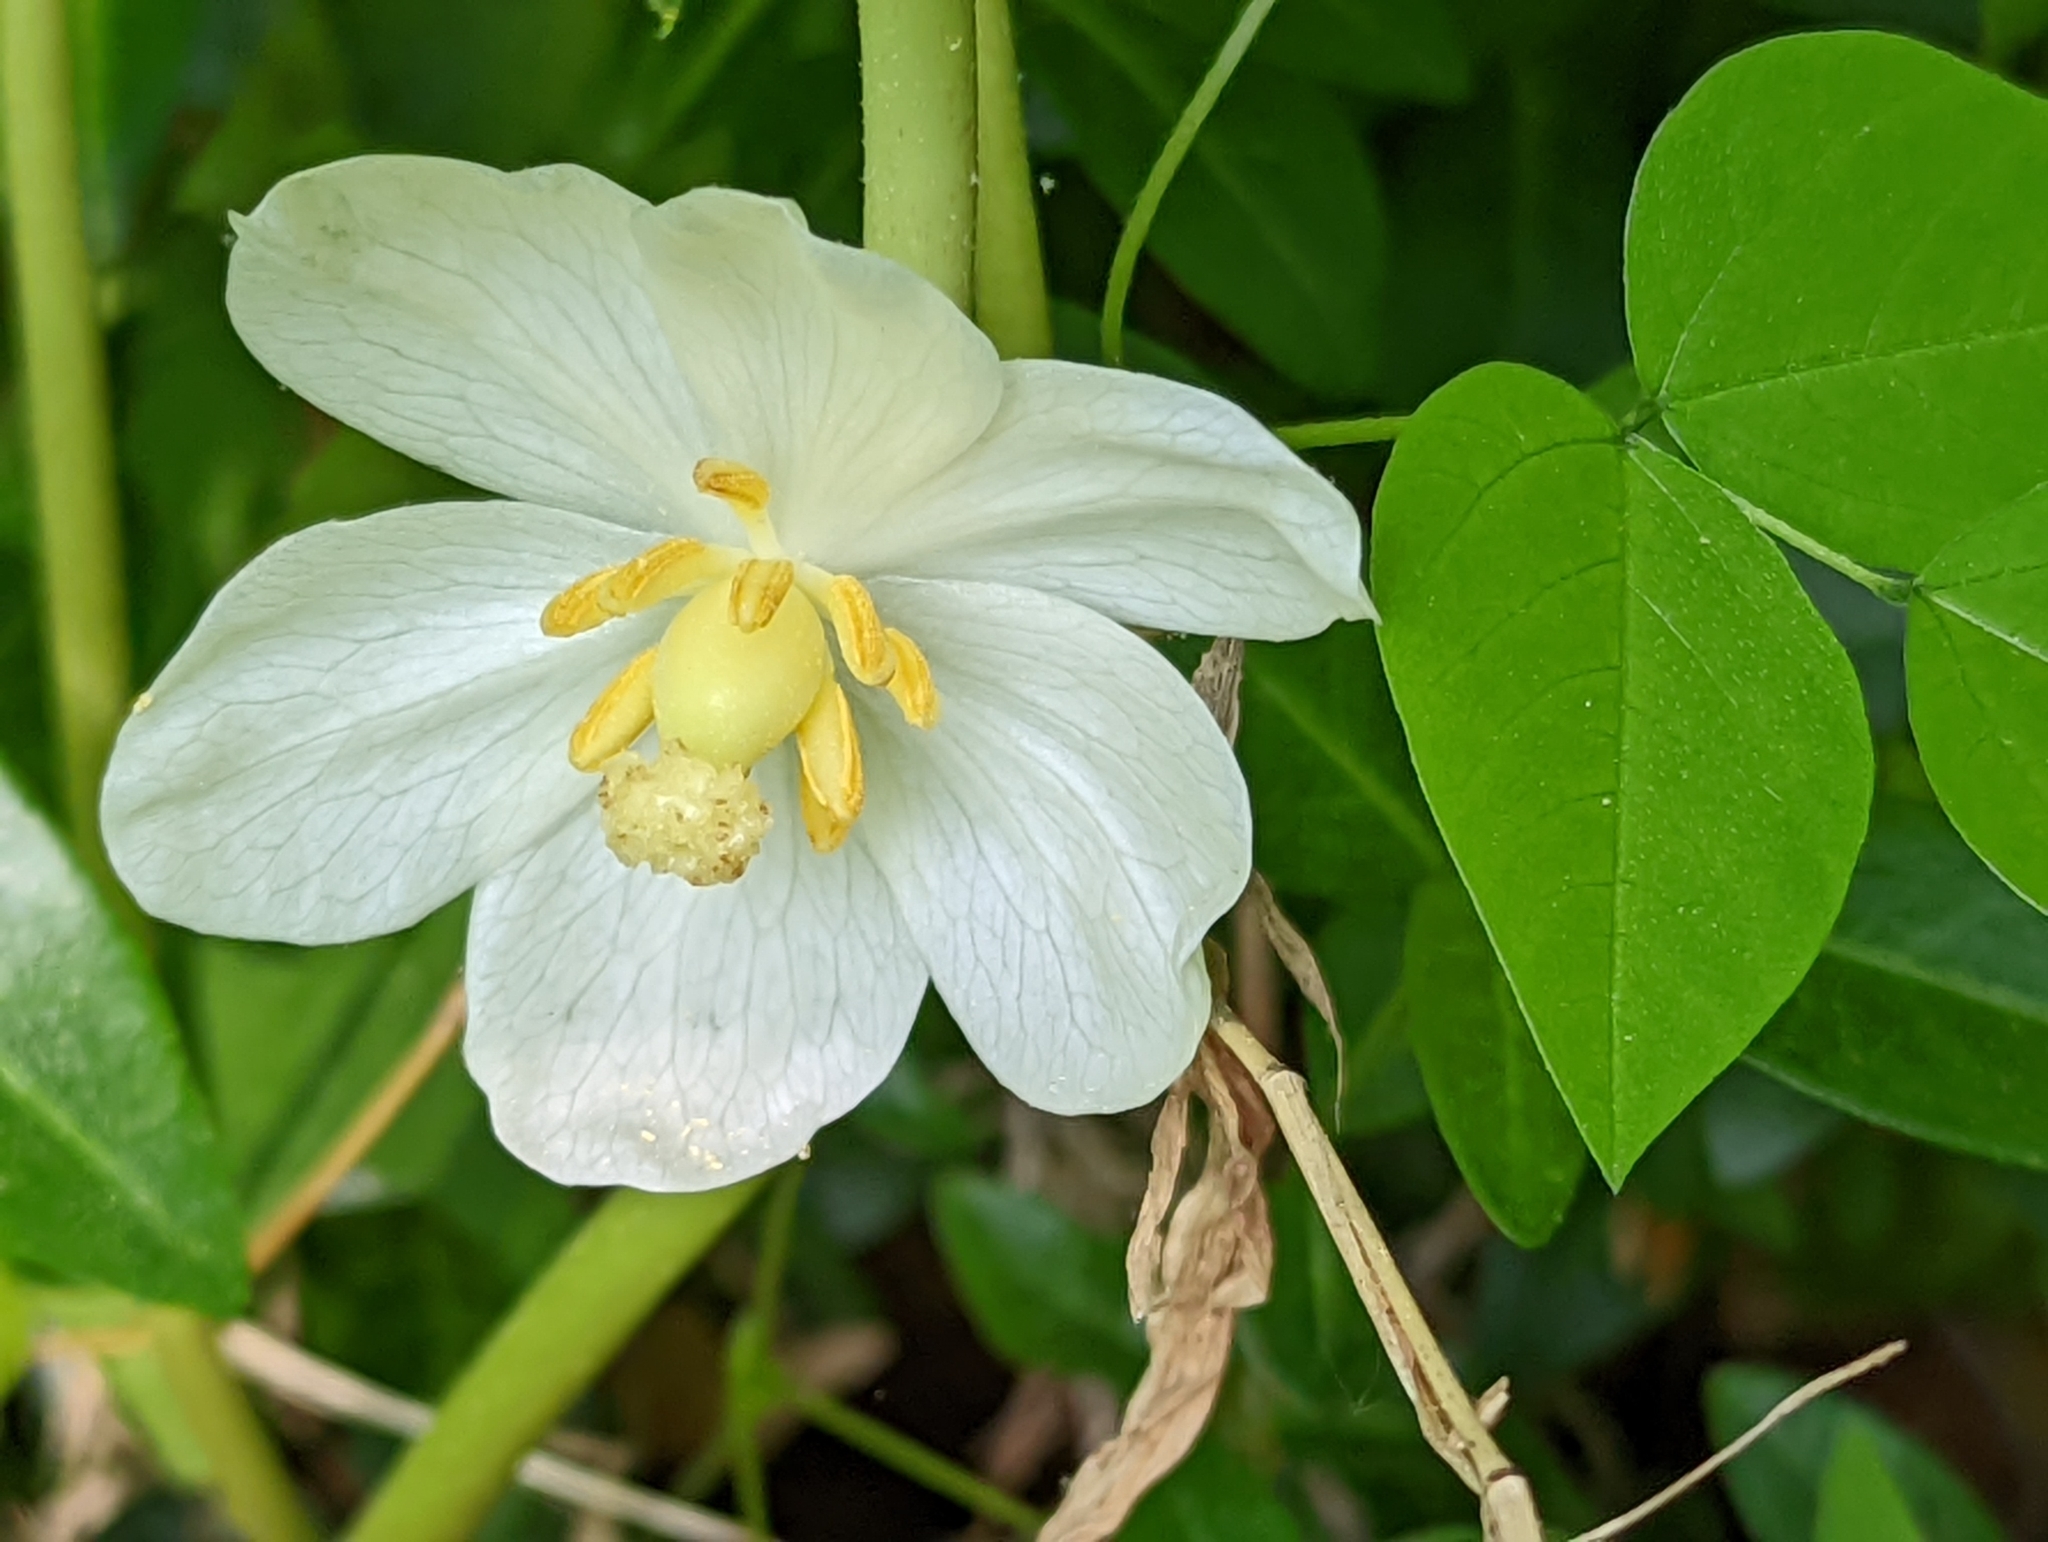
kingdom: Plantae
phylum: Tracheophyta
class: Magnoliopsida
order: Ranunculales
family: Berberidaceae
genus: Podophyllum
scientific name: Podophyllum peltatum
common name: Wild mandrake
